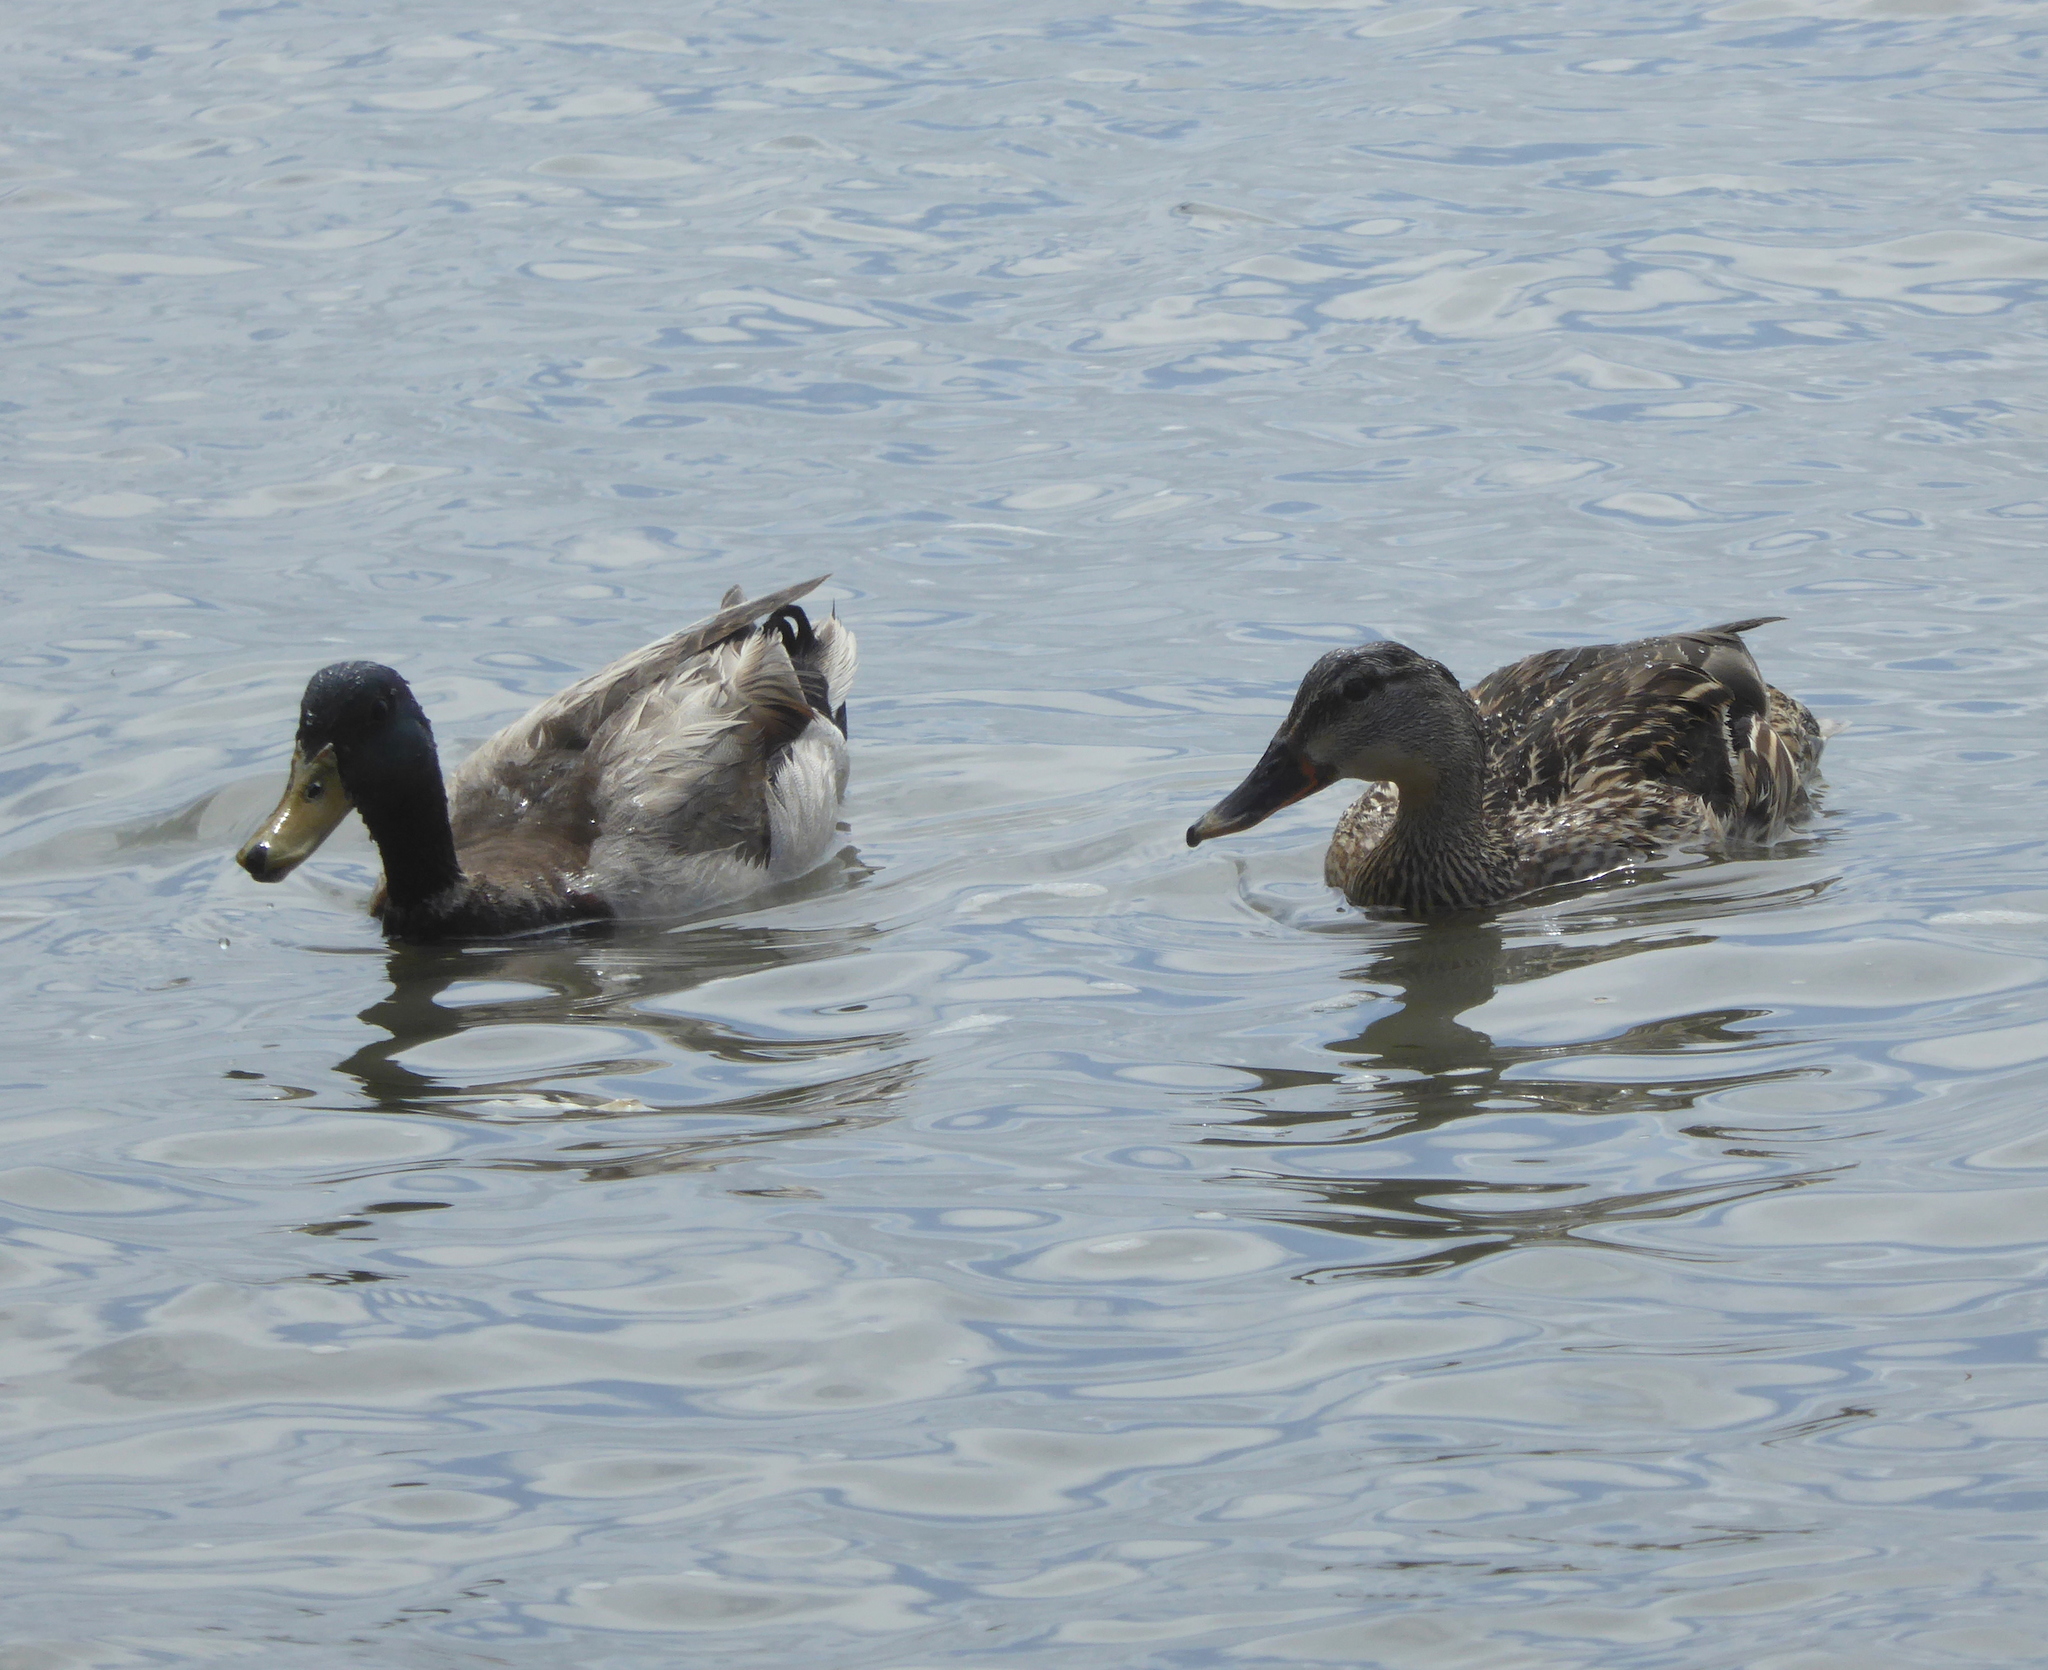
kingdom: Animalia
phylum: Chordata
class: Aves
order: Anseriformes
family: Anatidae
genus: Anas
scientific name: Anas platyrhynchos
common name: Mallard
